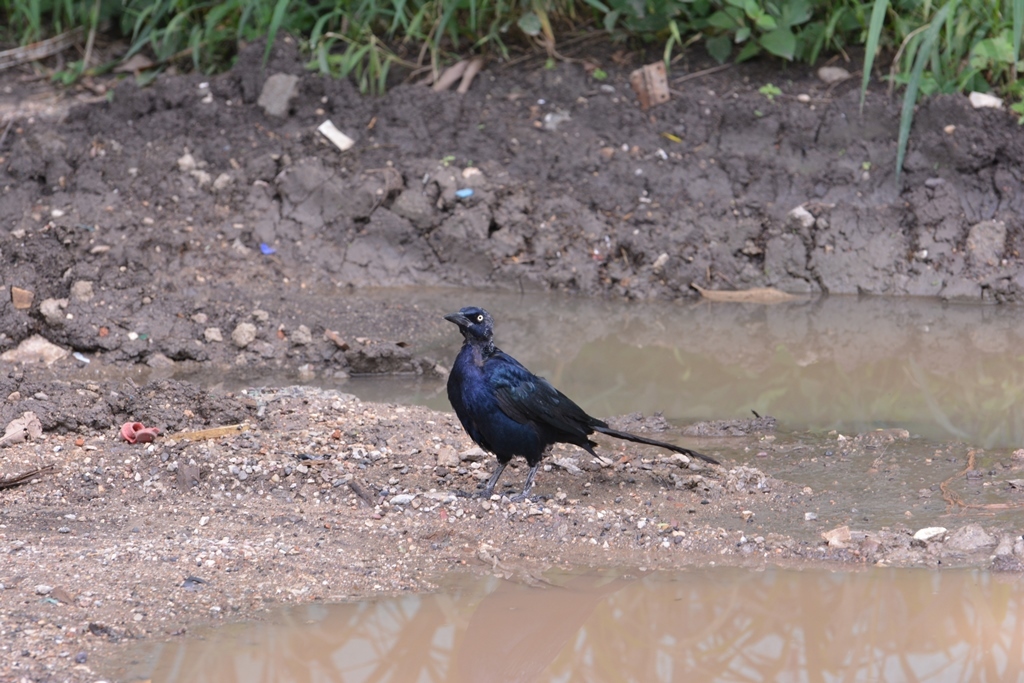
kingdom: Animalia
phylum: Chordata
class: Aves
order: Passeriformes
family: Icteridae
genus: Quiscalus
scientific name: Quiscalus mexicanus
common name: Great-tailed grackle
